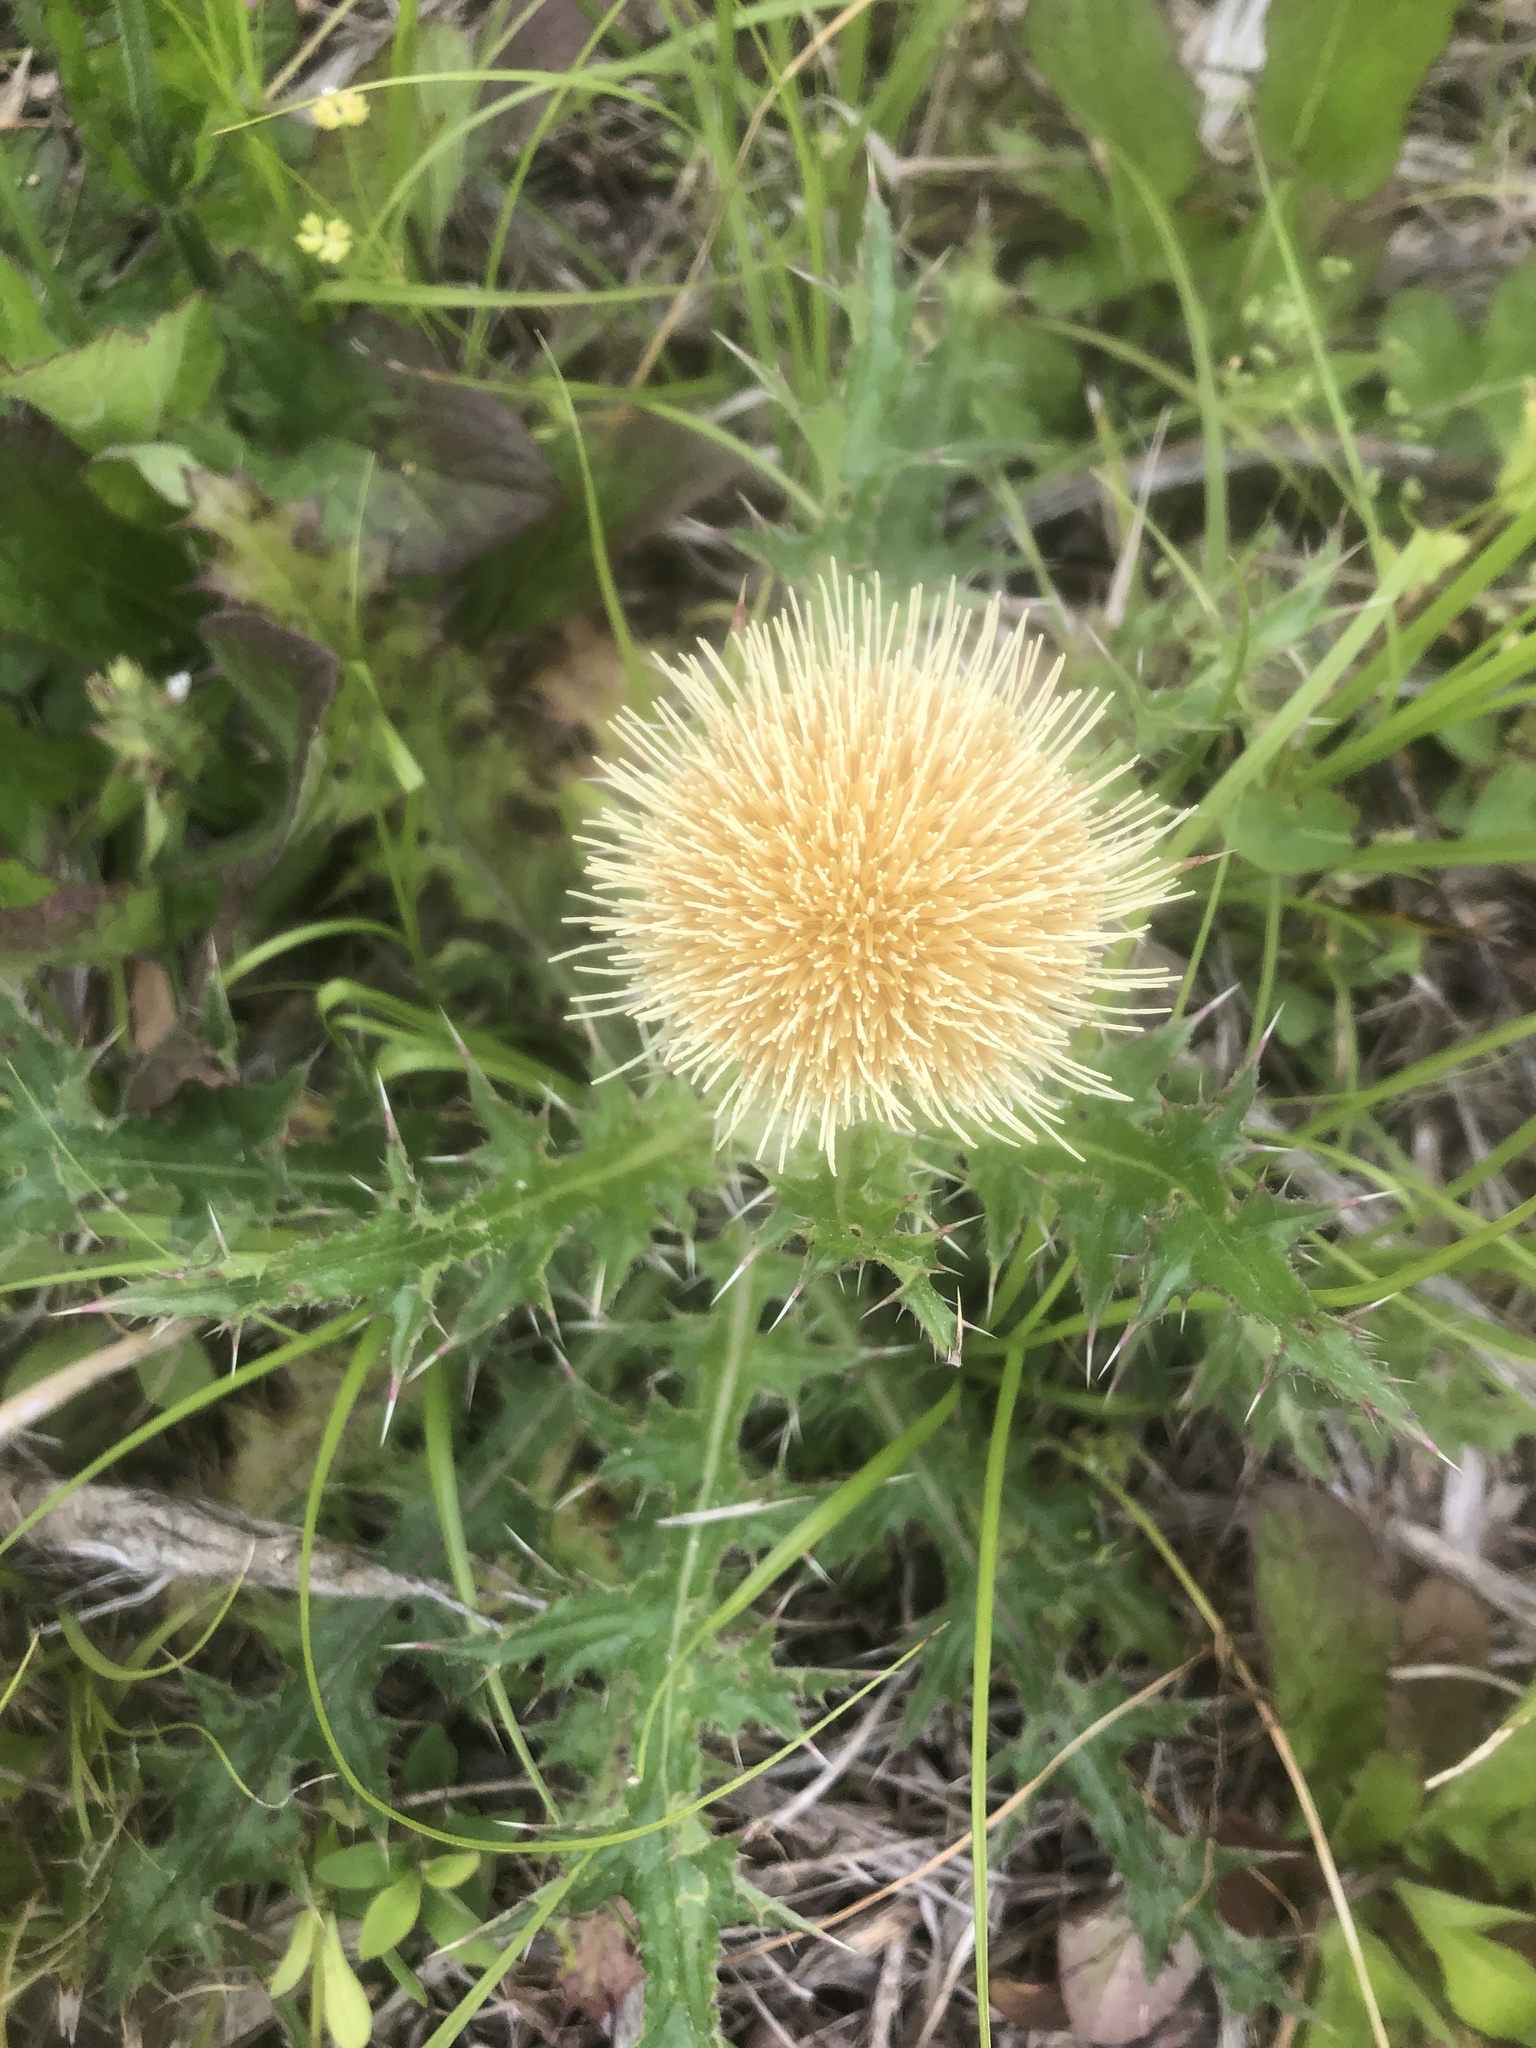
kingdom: Plantae
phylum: Tracheophyta
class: Magnoliopsida
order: Asterales
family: Asteraceae
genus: Cirsium
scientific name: Cirsium horridulum
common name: Bristly thistle
